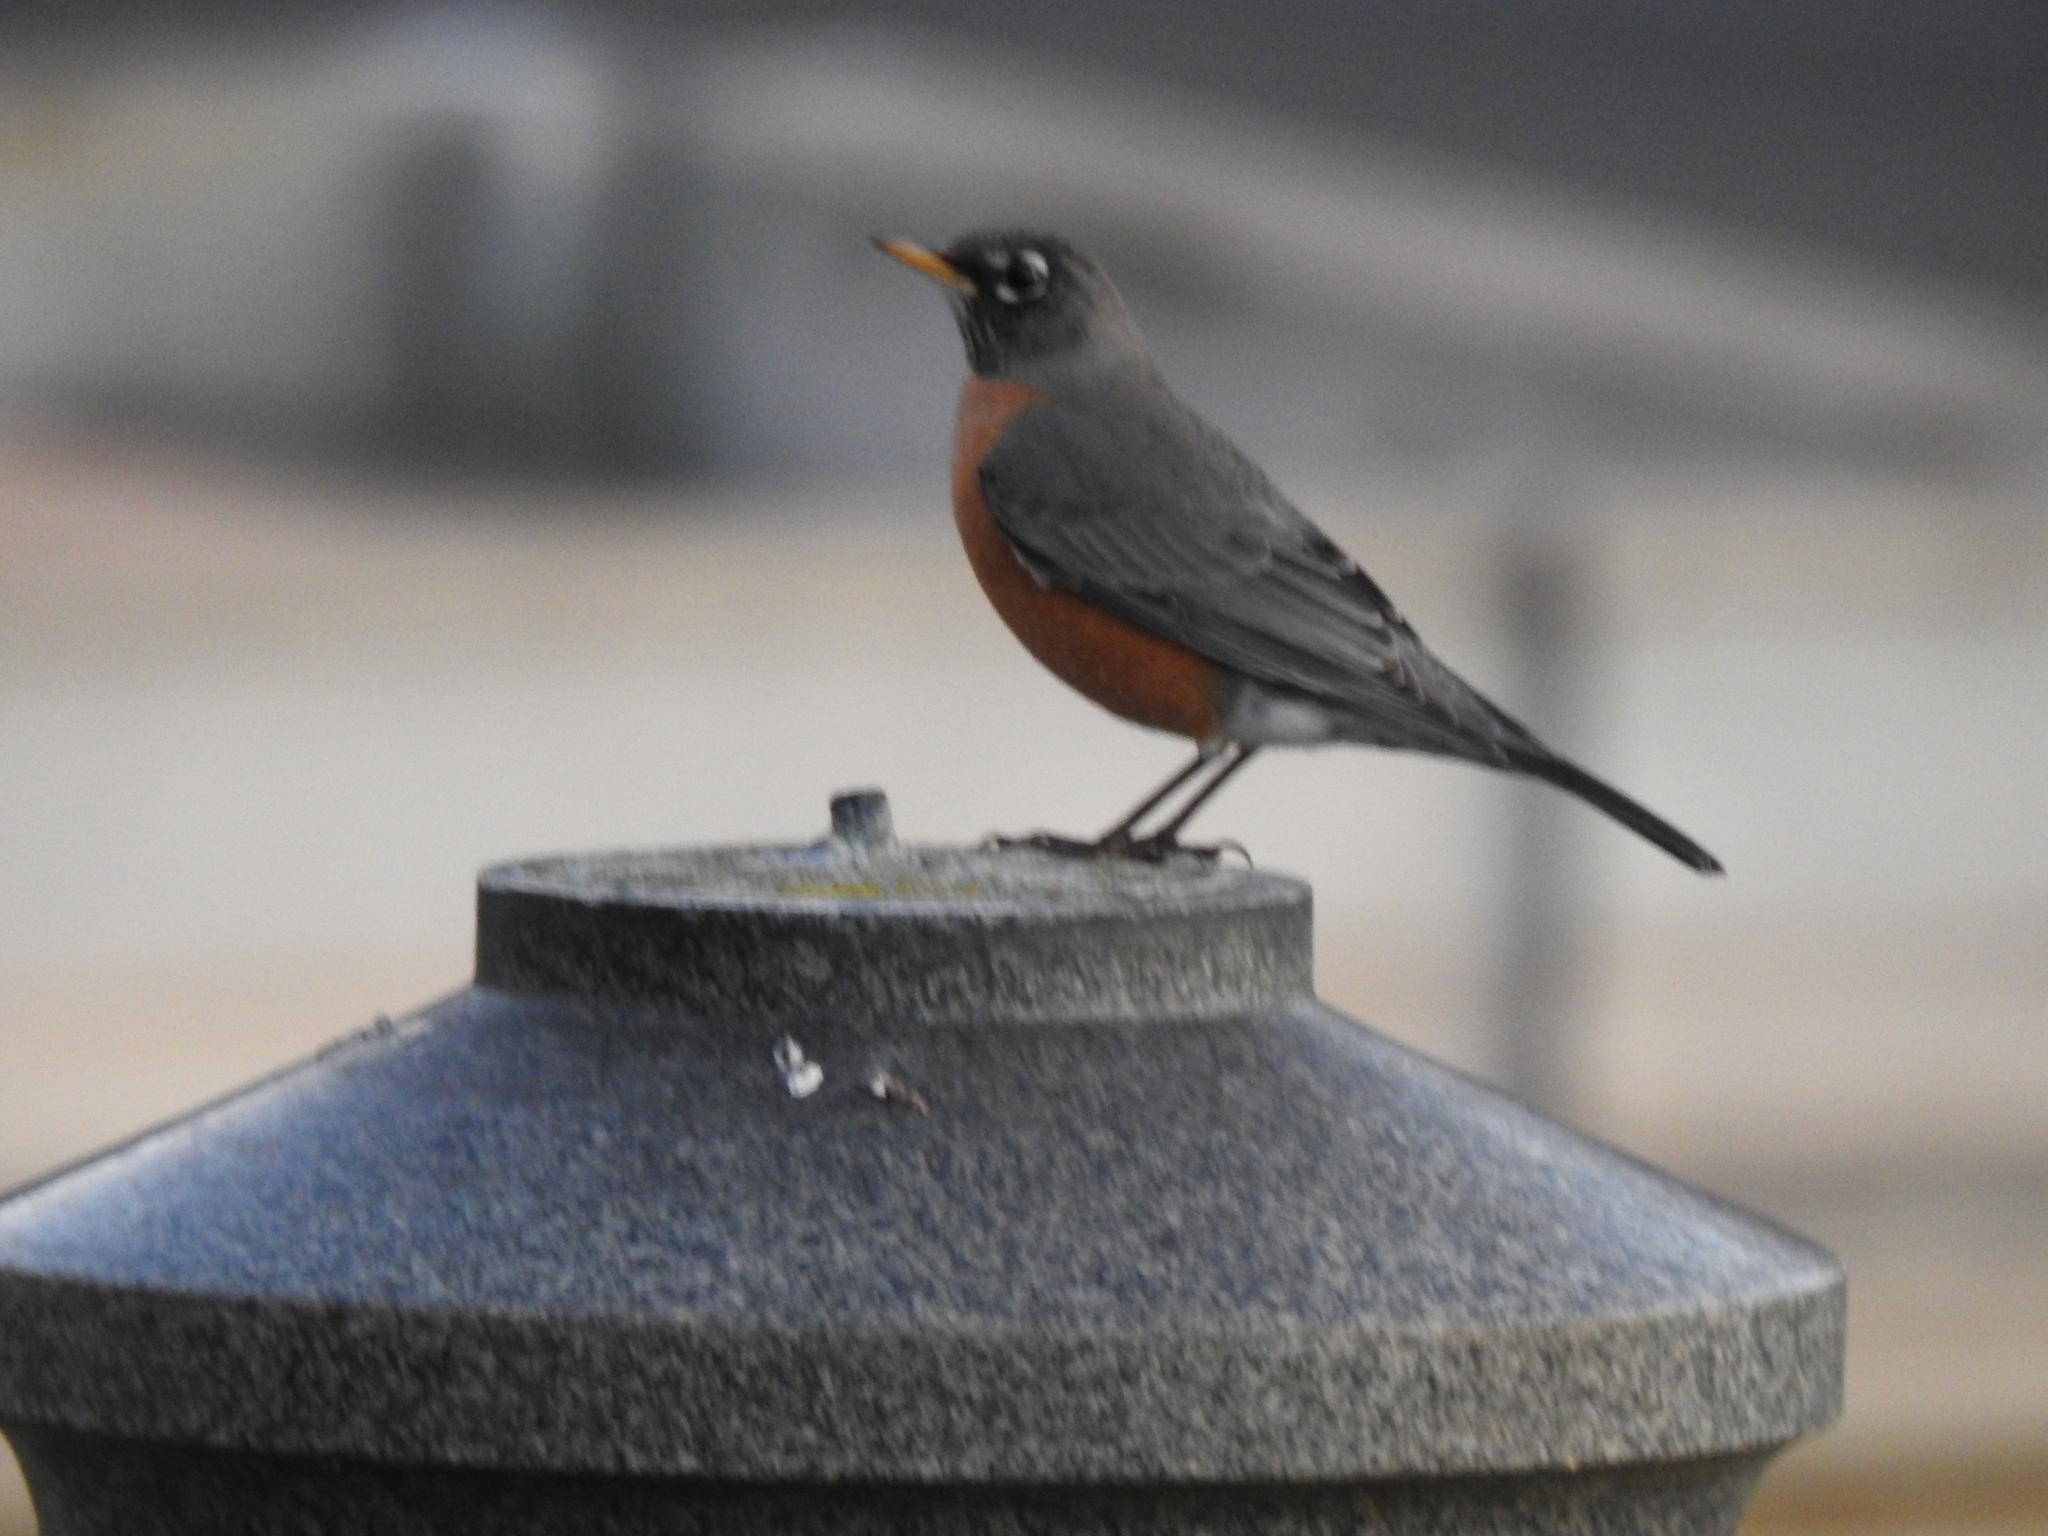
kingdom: Animalia
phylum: Chordata
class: Aves
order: Passeriformes
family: Turdidae
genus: Turdus
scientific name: Turdus migratorius
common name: American robin
